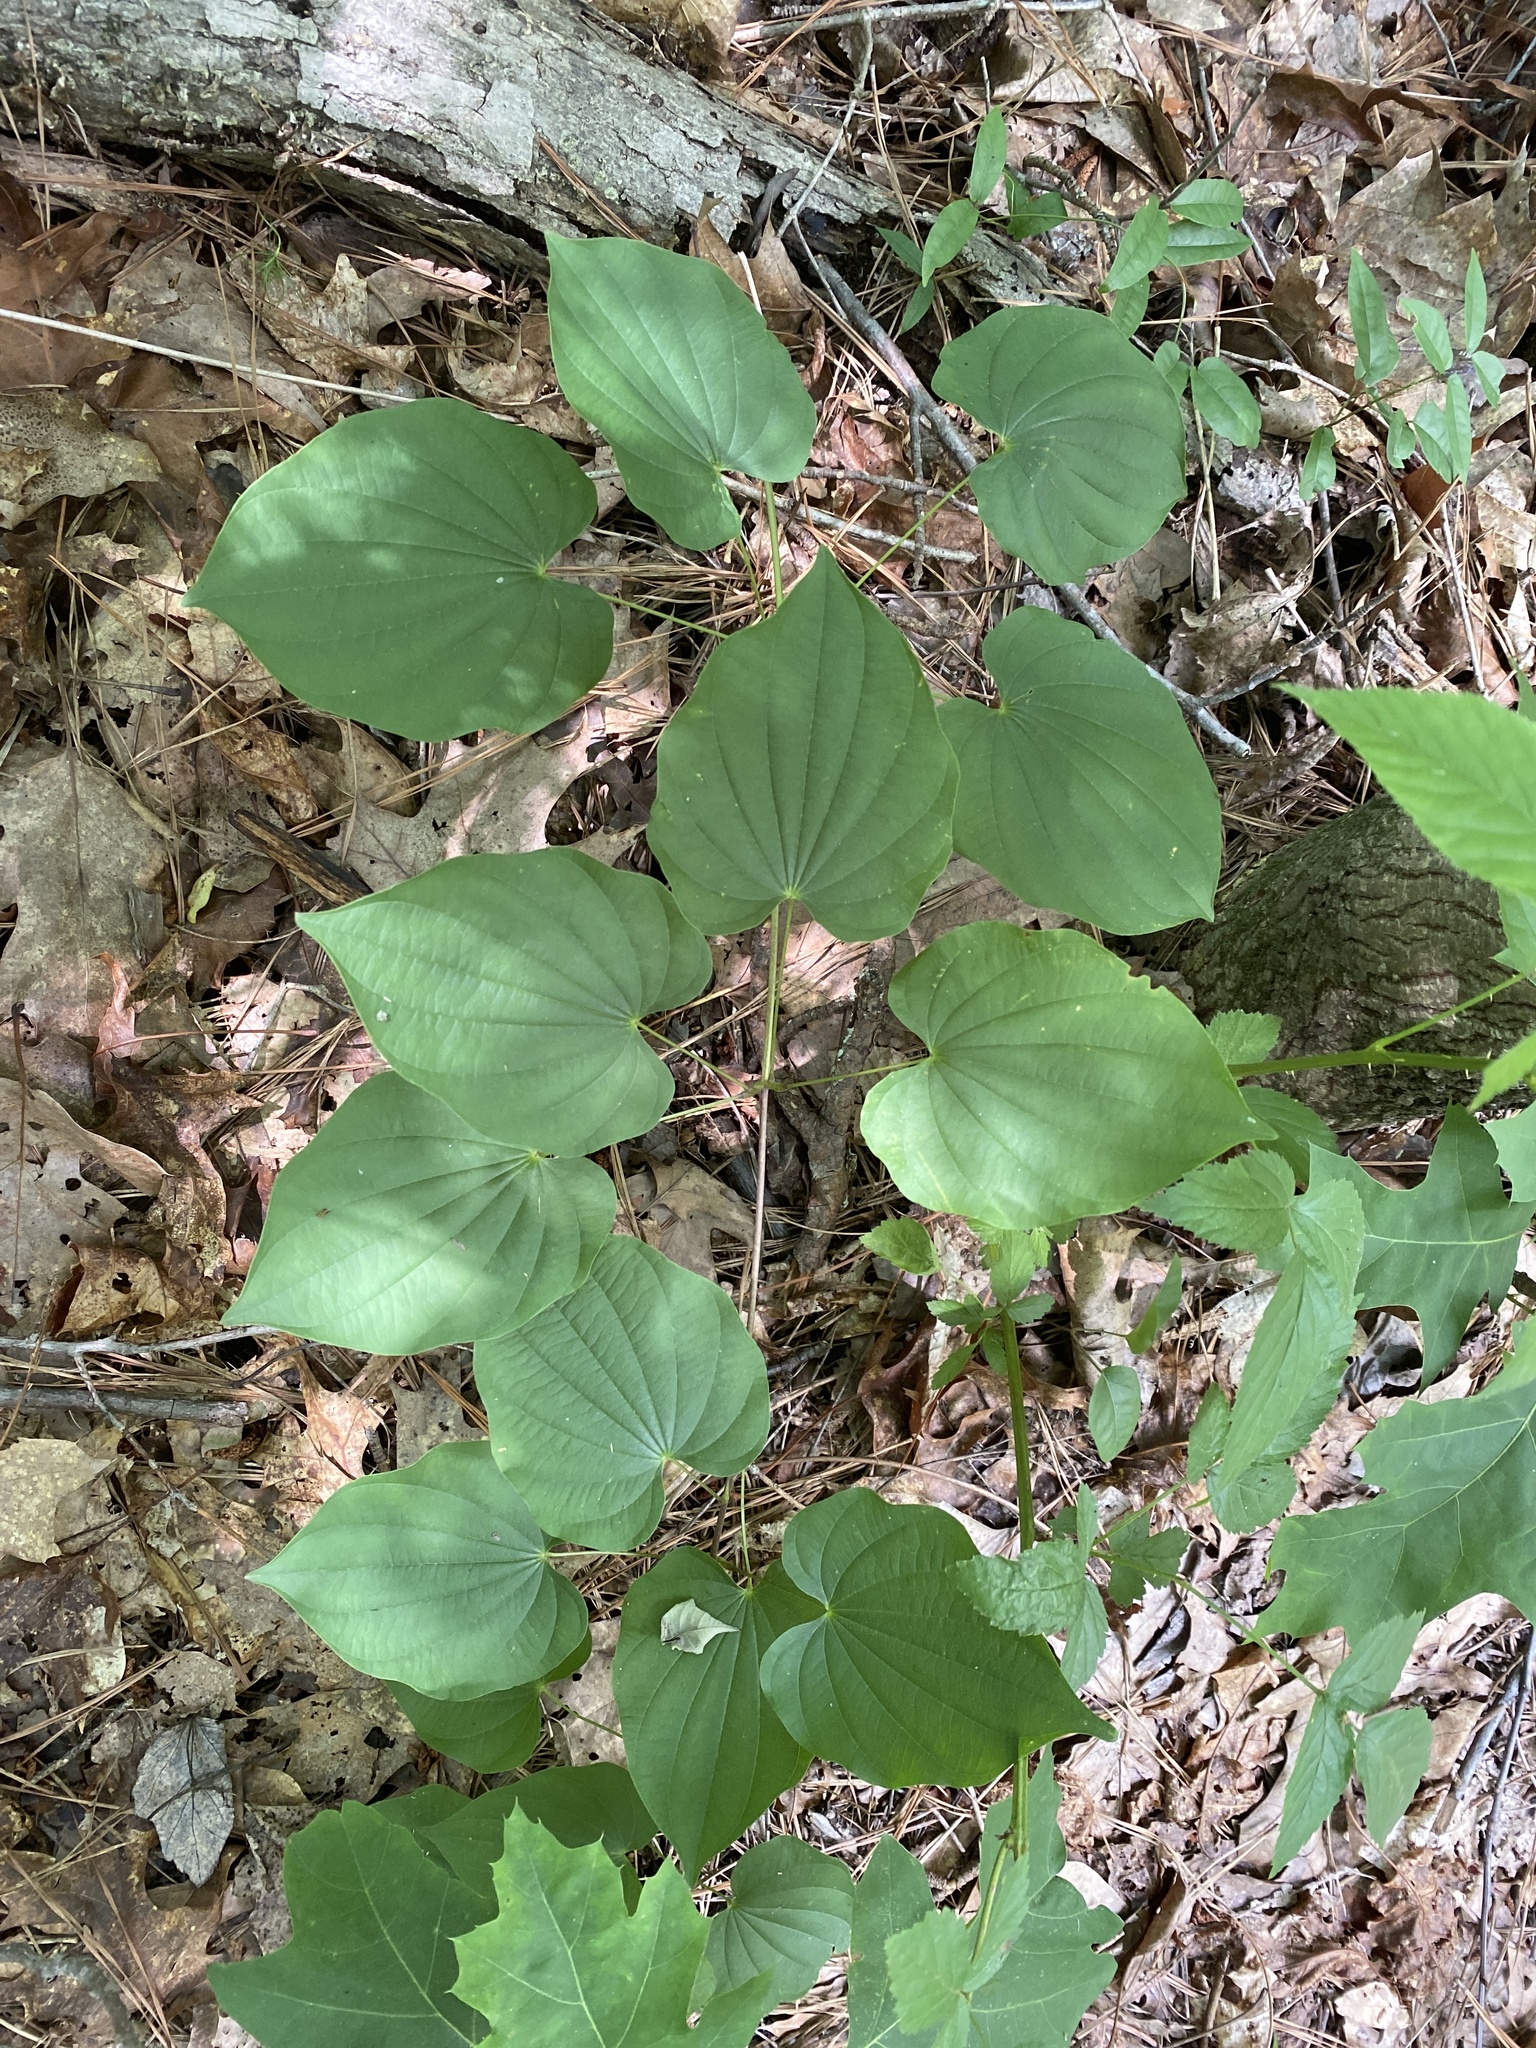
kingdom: Plantae
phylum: Tracheophyta
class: Liliopsida
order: Dioscoreales
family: Dioscoreaceae
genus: Dioscorea
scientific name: Dioscorea villosa
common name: Wild yam
